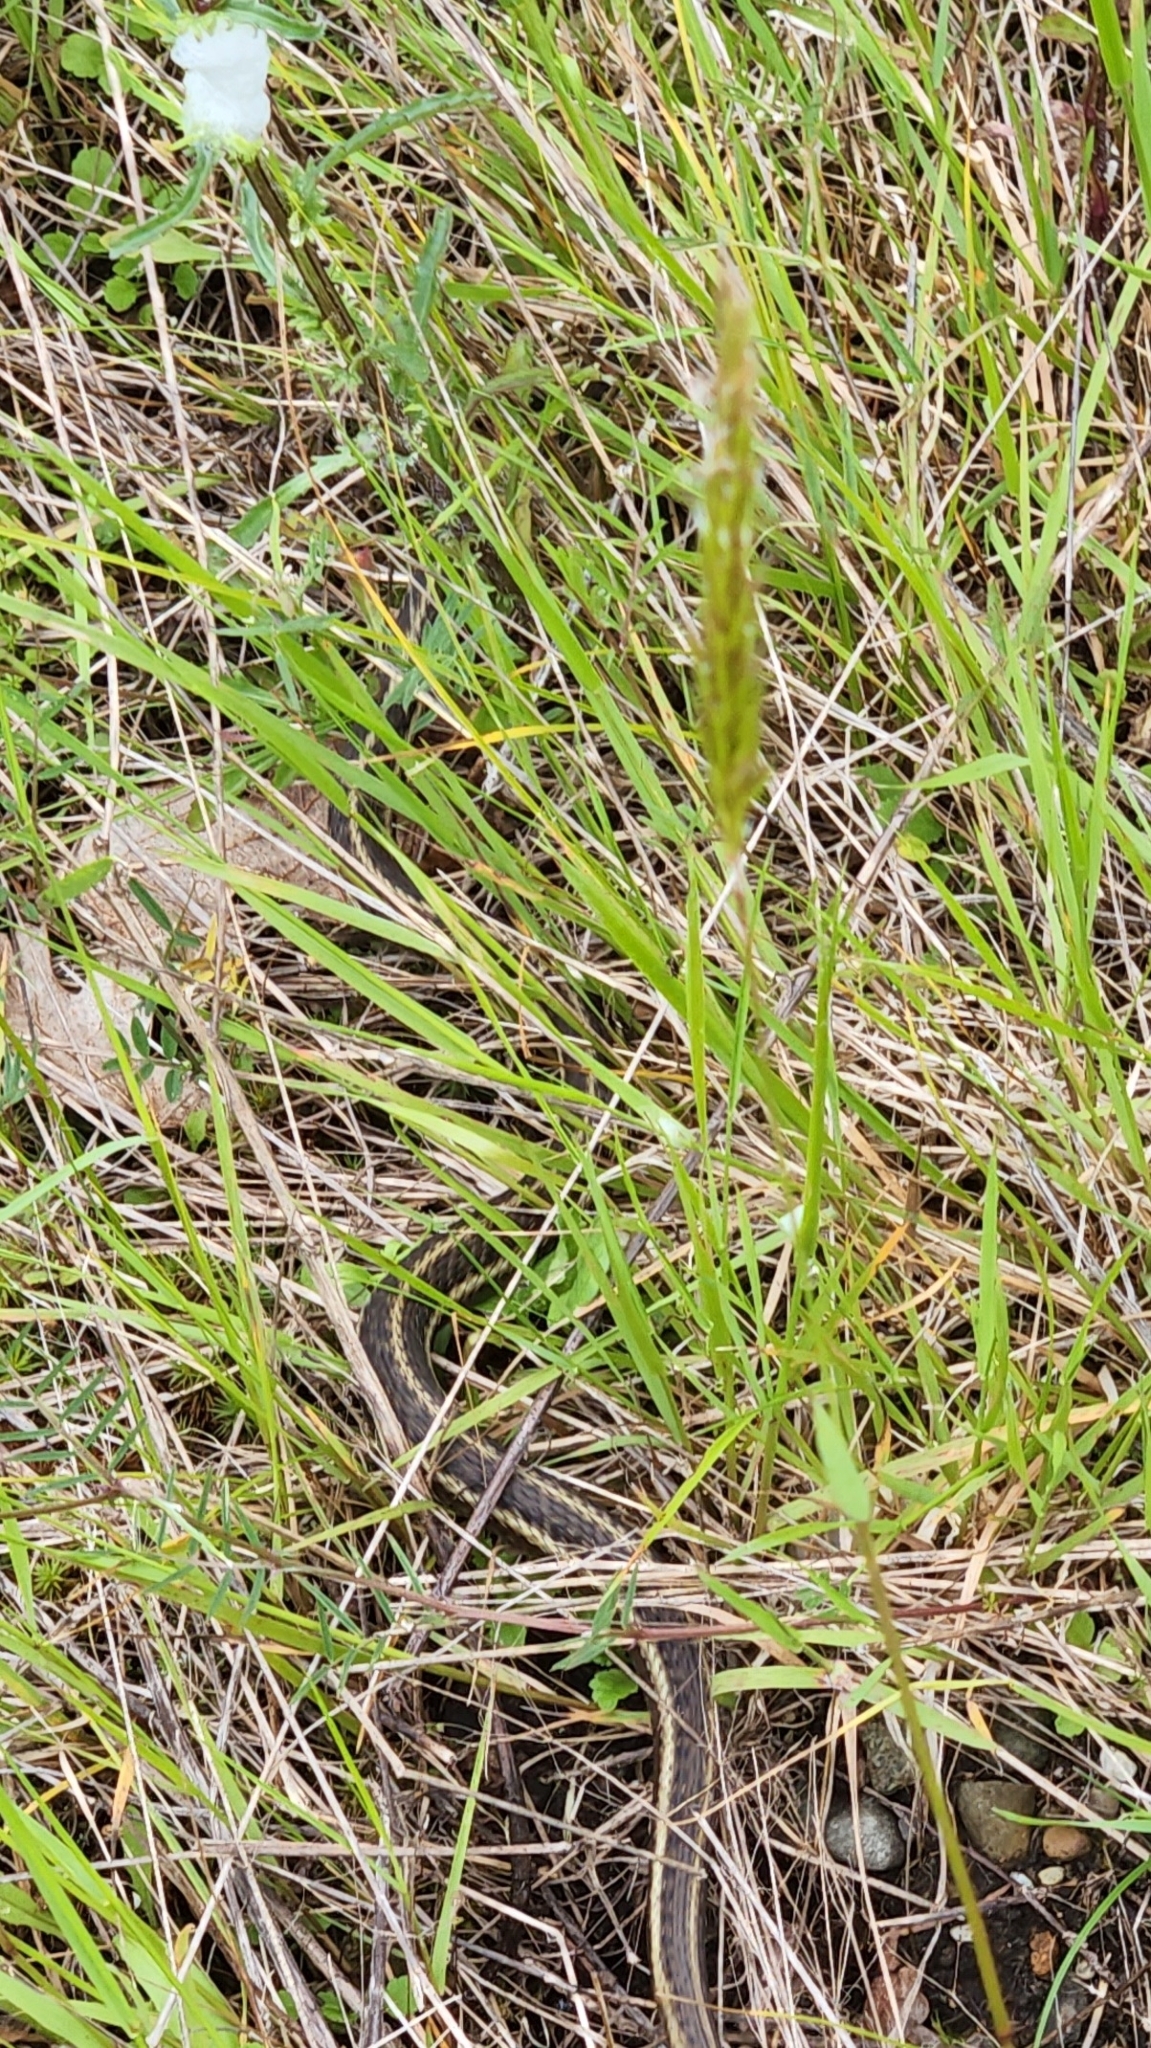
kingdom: Animalia
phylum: Chordata
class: Squamata
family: Colubridae
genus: Thamnophis
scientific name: Thamnophis
